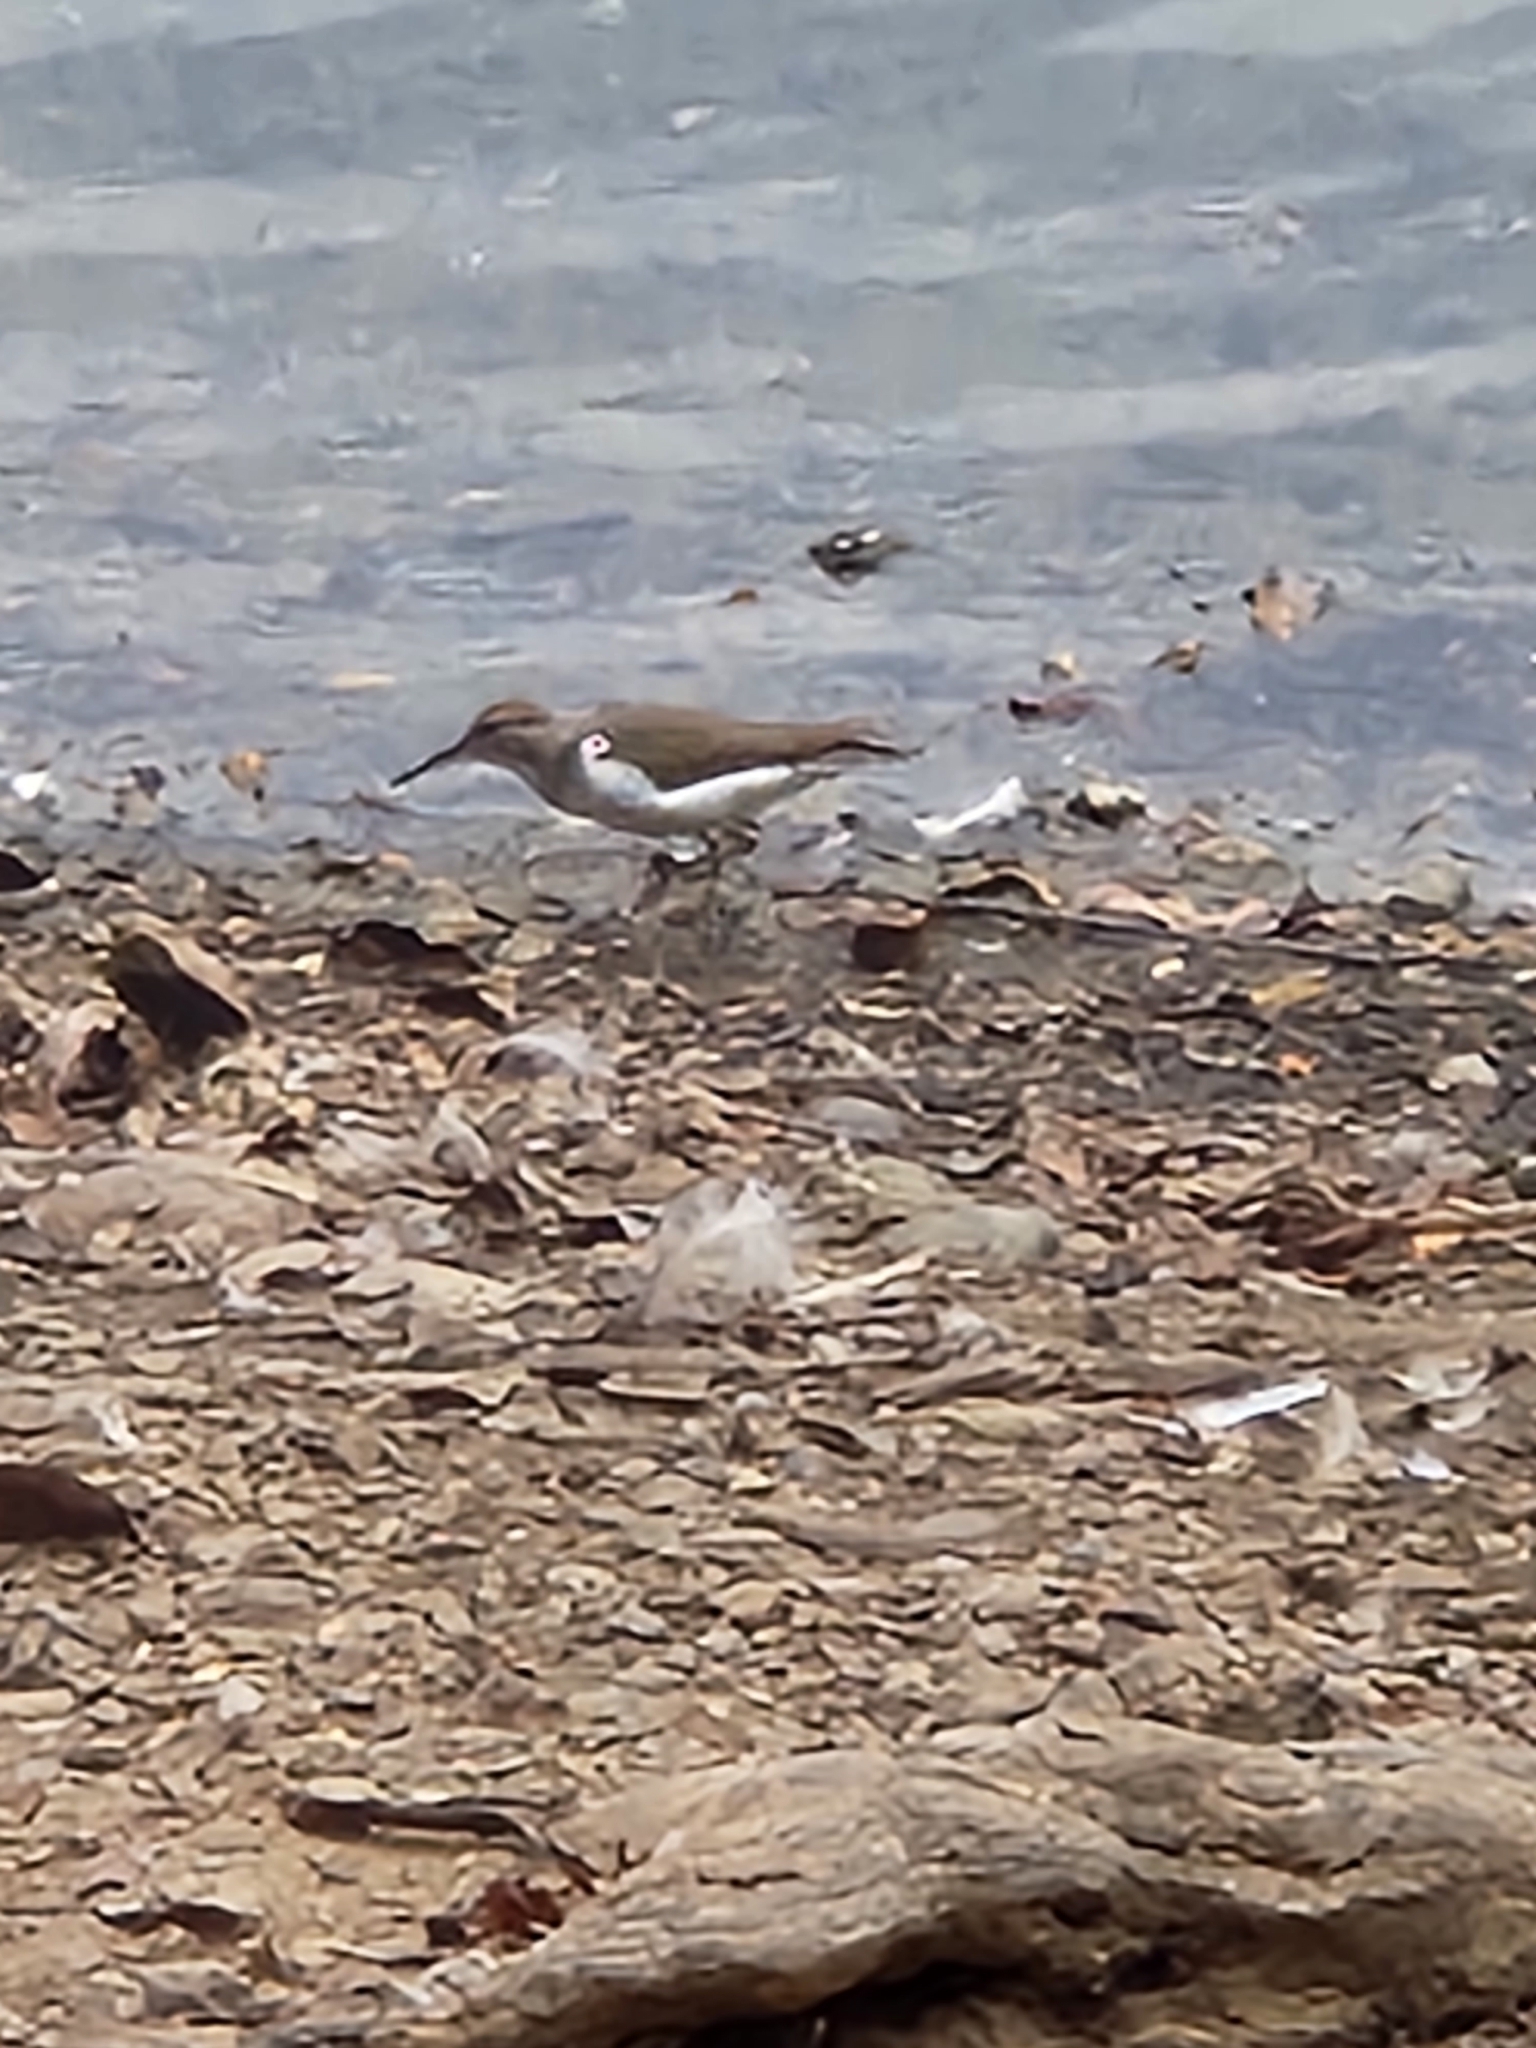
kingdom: Animalia
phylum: Chordata
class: Aves
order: Charadriiformes
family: Scolopacidae
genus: Actitis
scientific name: Actitis macularius
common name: Spotted sandpiper
